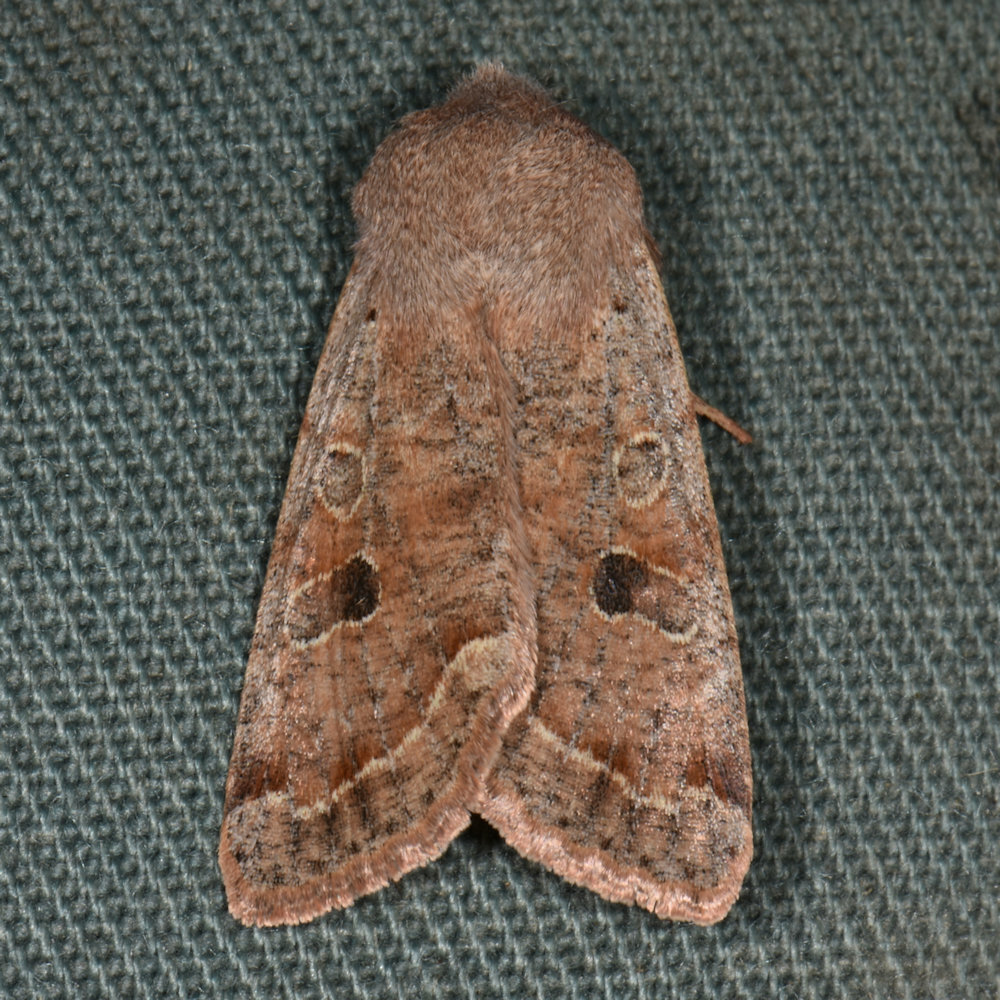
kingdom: Animalia
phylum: Arthropoda
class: Insecta
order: Lepidoptera
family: Noctuidae
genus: Orthosia
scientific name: Orthosia hibisci
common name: Green fruitworm
